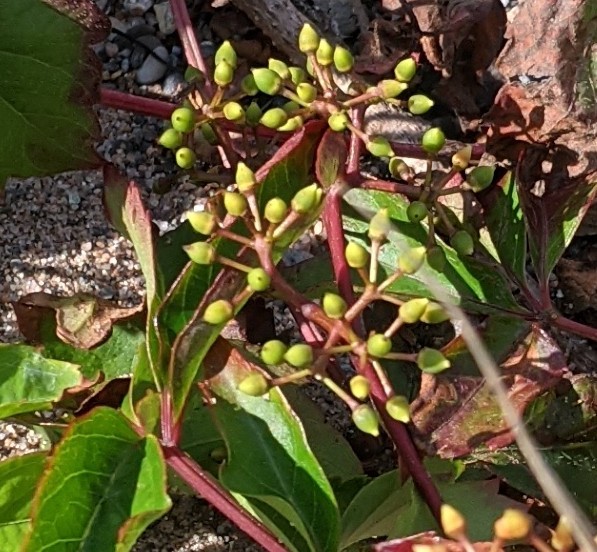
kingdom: Plantae
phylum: Tracheophyta
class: Magnoliopsida
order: Vitales
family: Vitaceae
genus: Parthenocissus
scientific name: Parthenocissus quinquefolia
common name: Virginia-creeper
